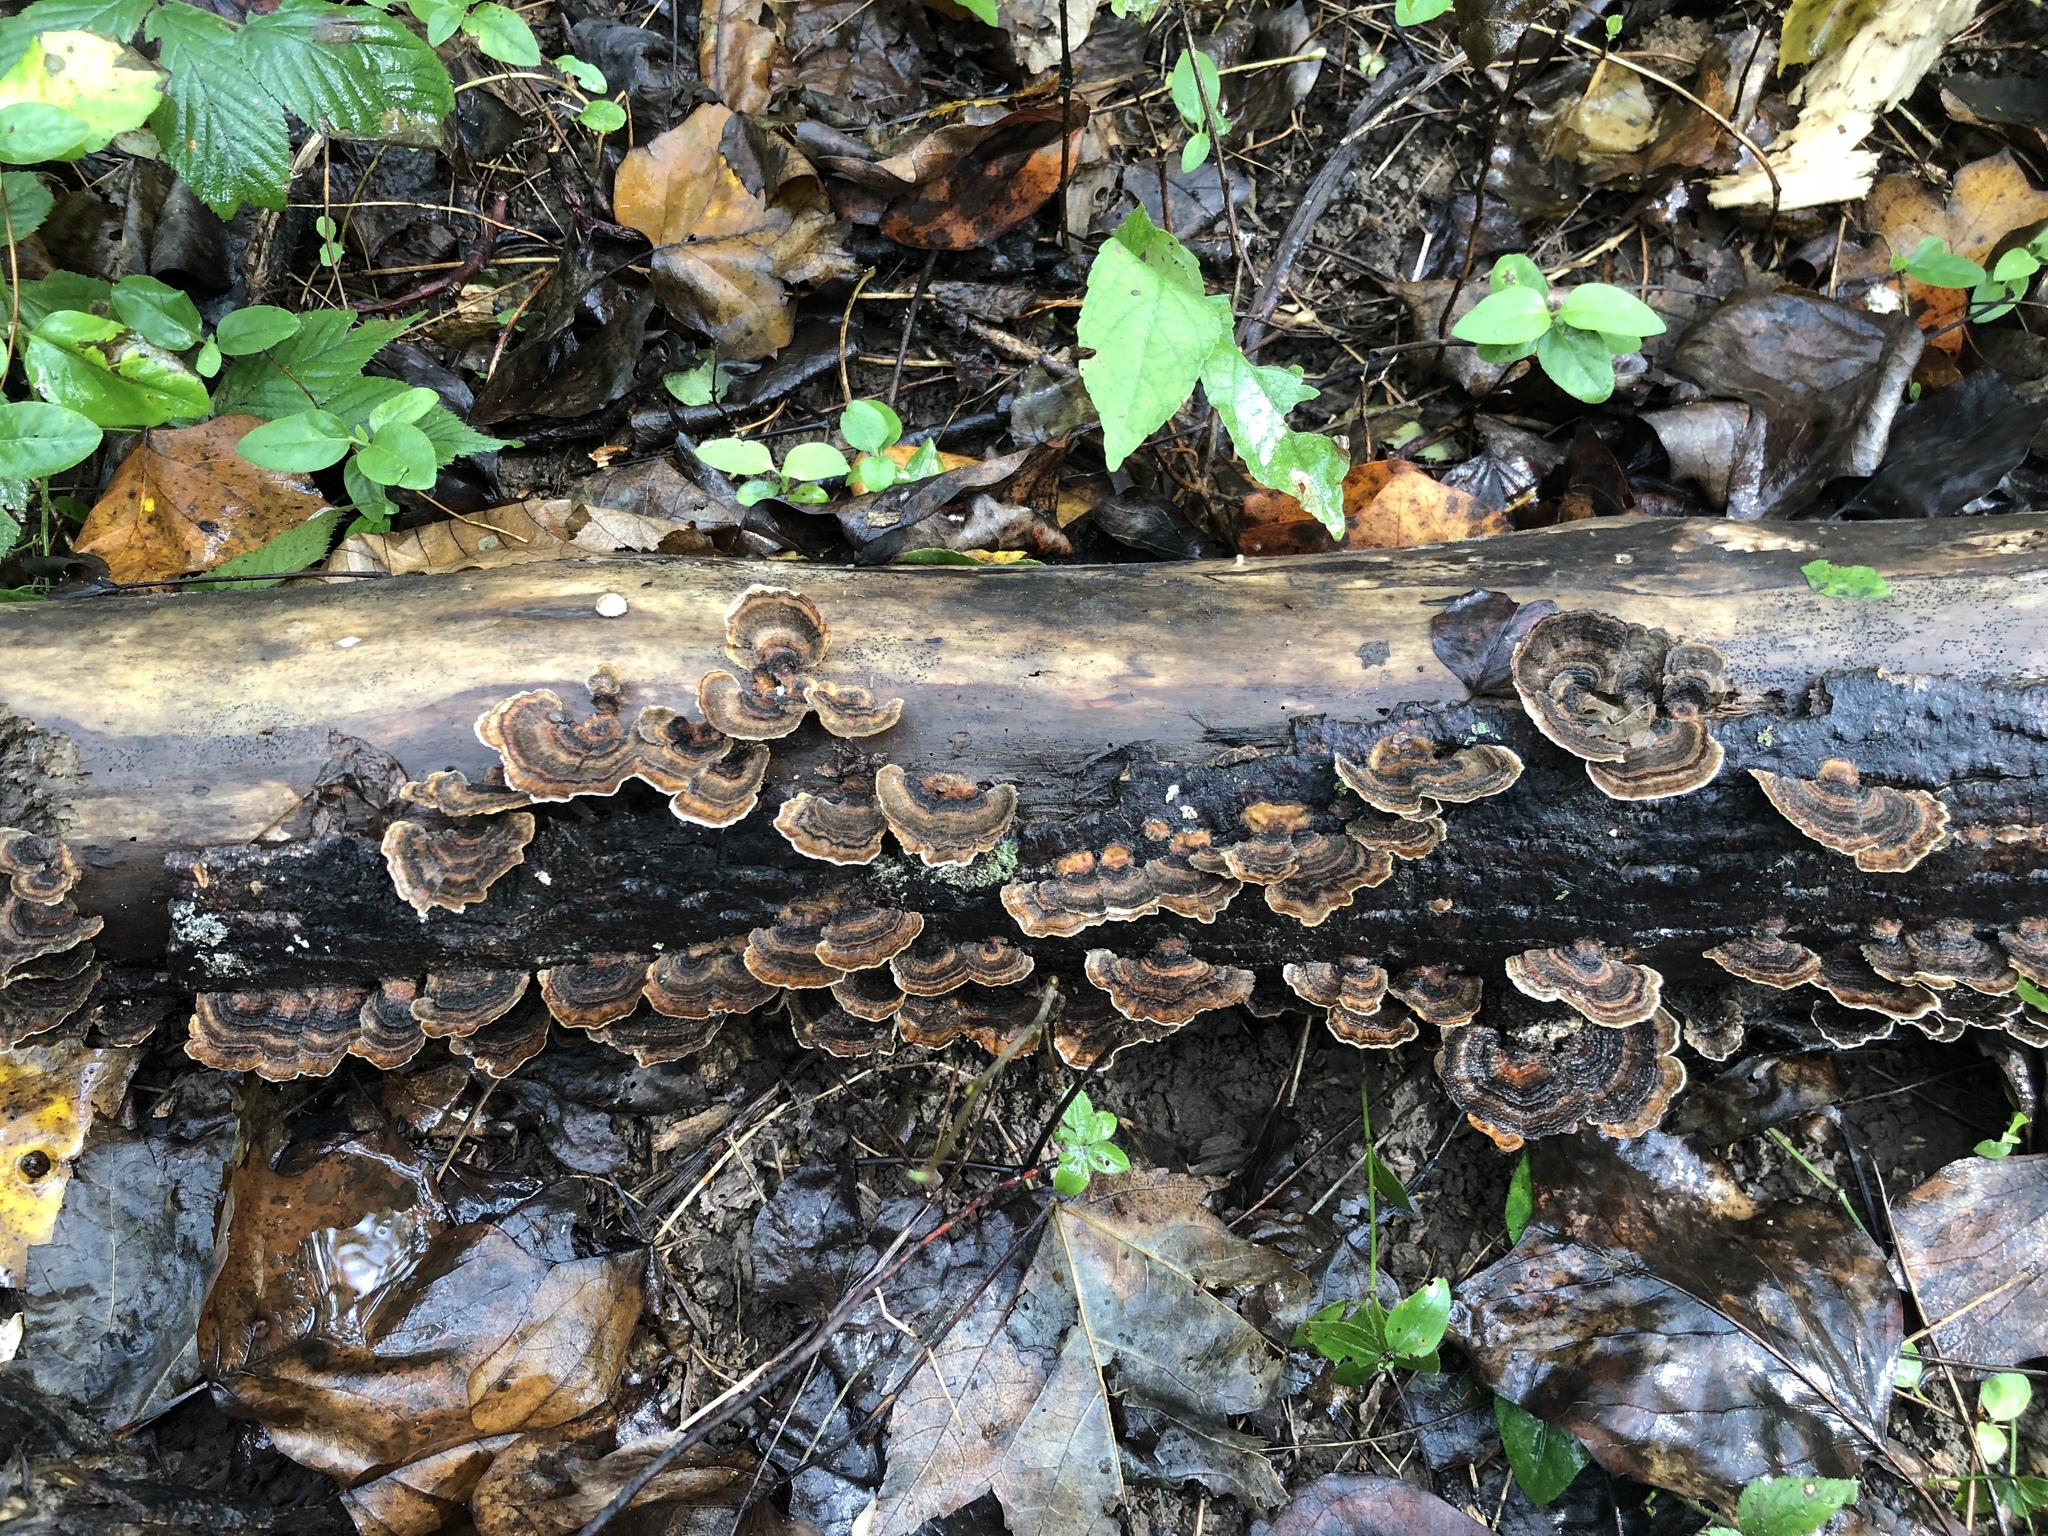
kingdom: Fungi
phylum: Basidiomycota
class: Agaricomycetes
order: Polyporales
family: Polyporaceae
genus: Trametes
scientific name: Trametes versicolor
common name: Turkeytail
